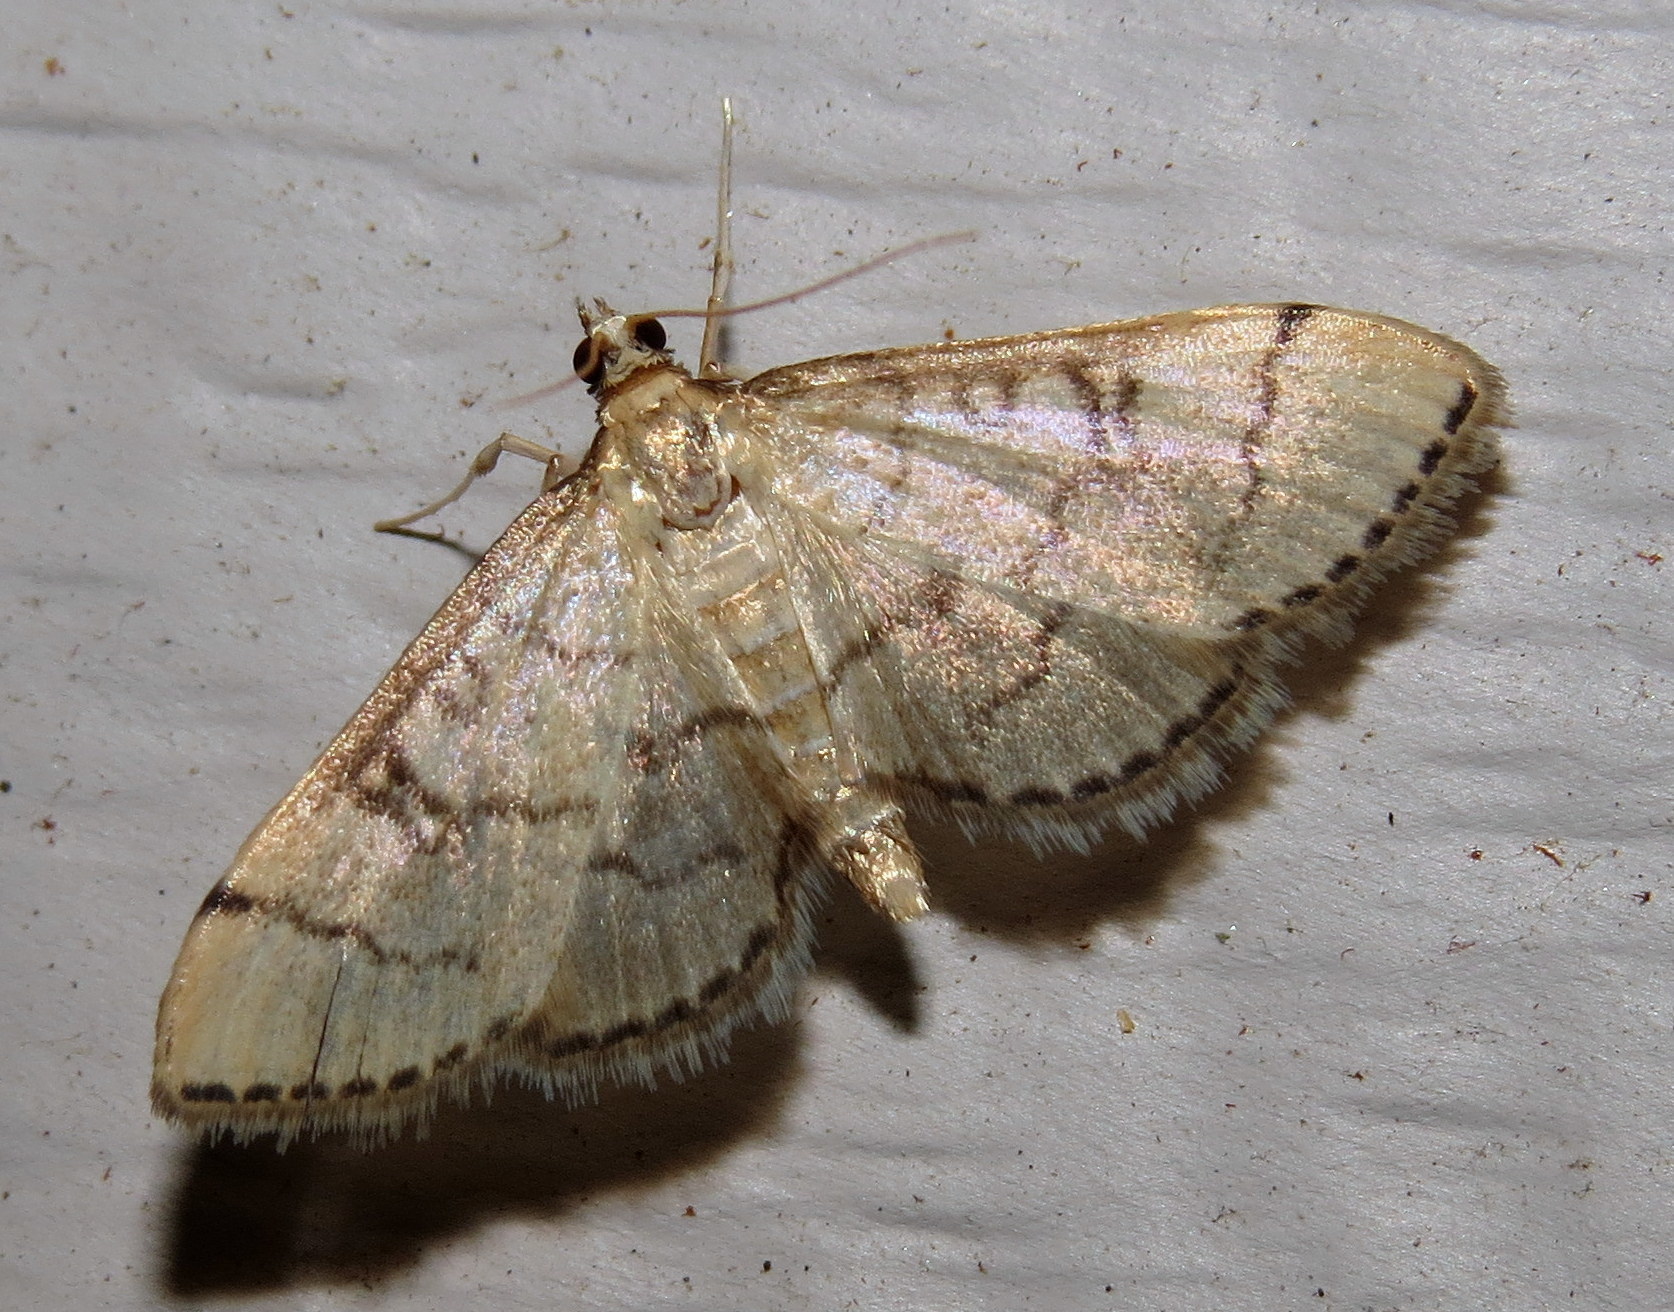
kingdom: Animalia
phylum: Arthropoda
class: Insecta
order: Lepidoptera
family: Crambidae
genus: Lamprosema
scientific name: Lamprosema Blepharomastix ranalis
